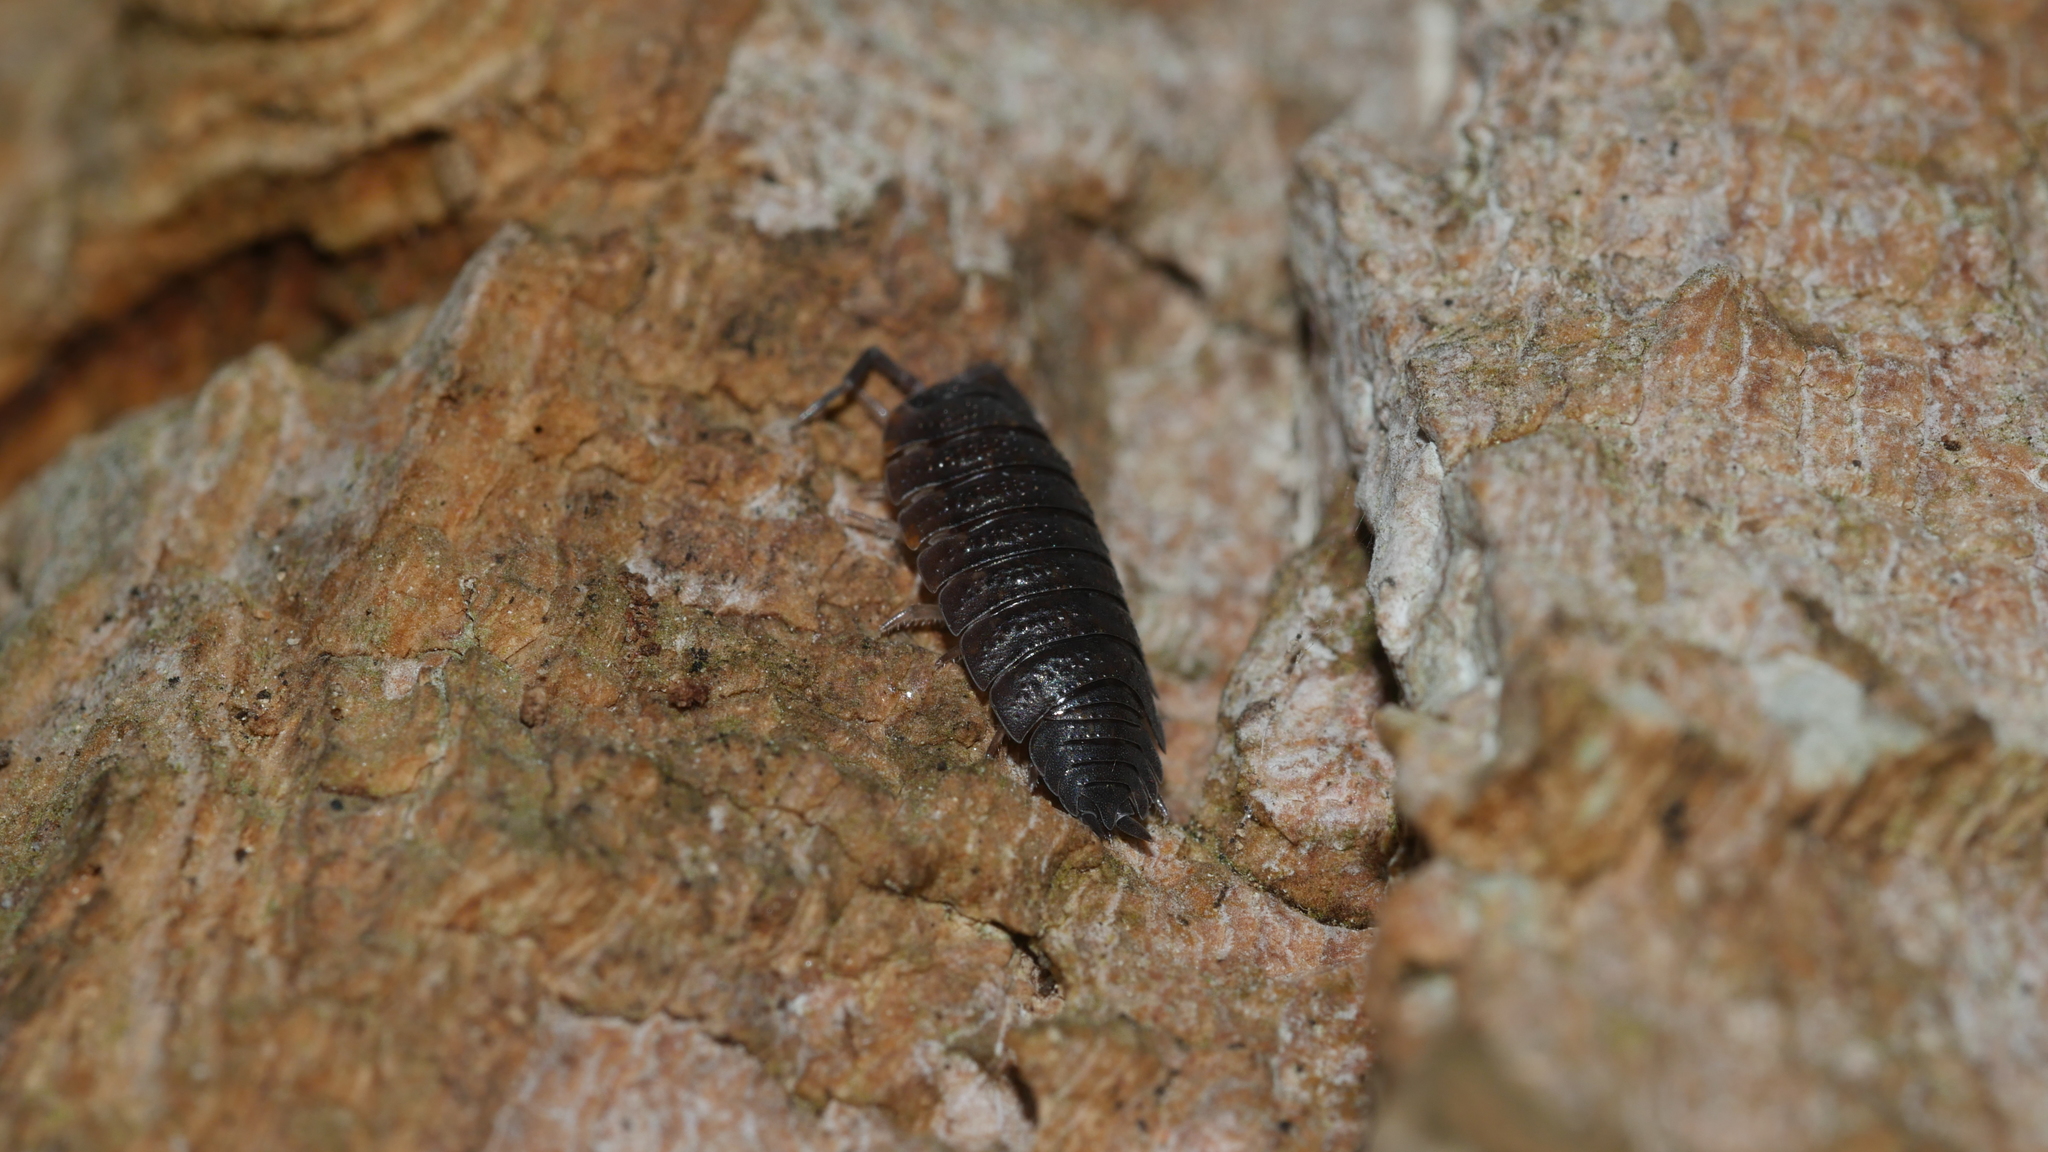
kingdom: Animalia
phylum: Arthropoda
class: Malacostraca
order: Isopoda
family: Porcellionidae
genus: Porcellio
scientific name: Porcellio scaber
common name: Common rough woodlouse
